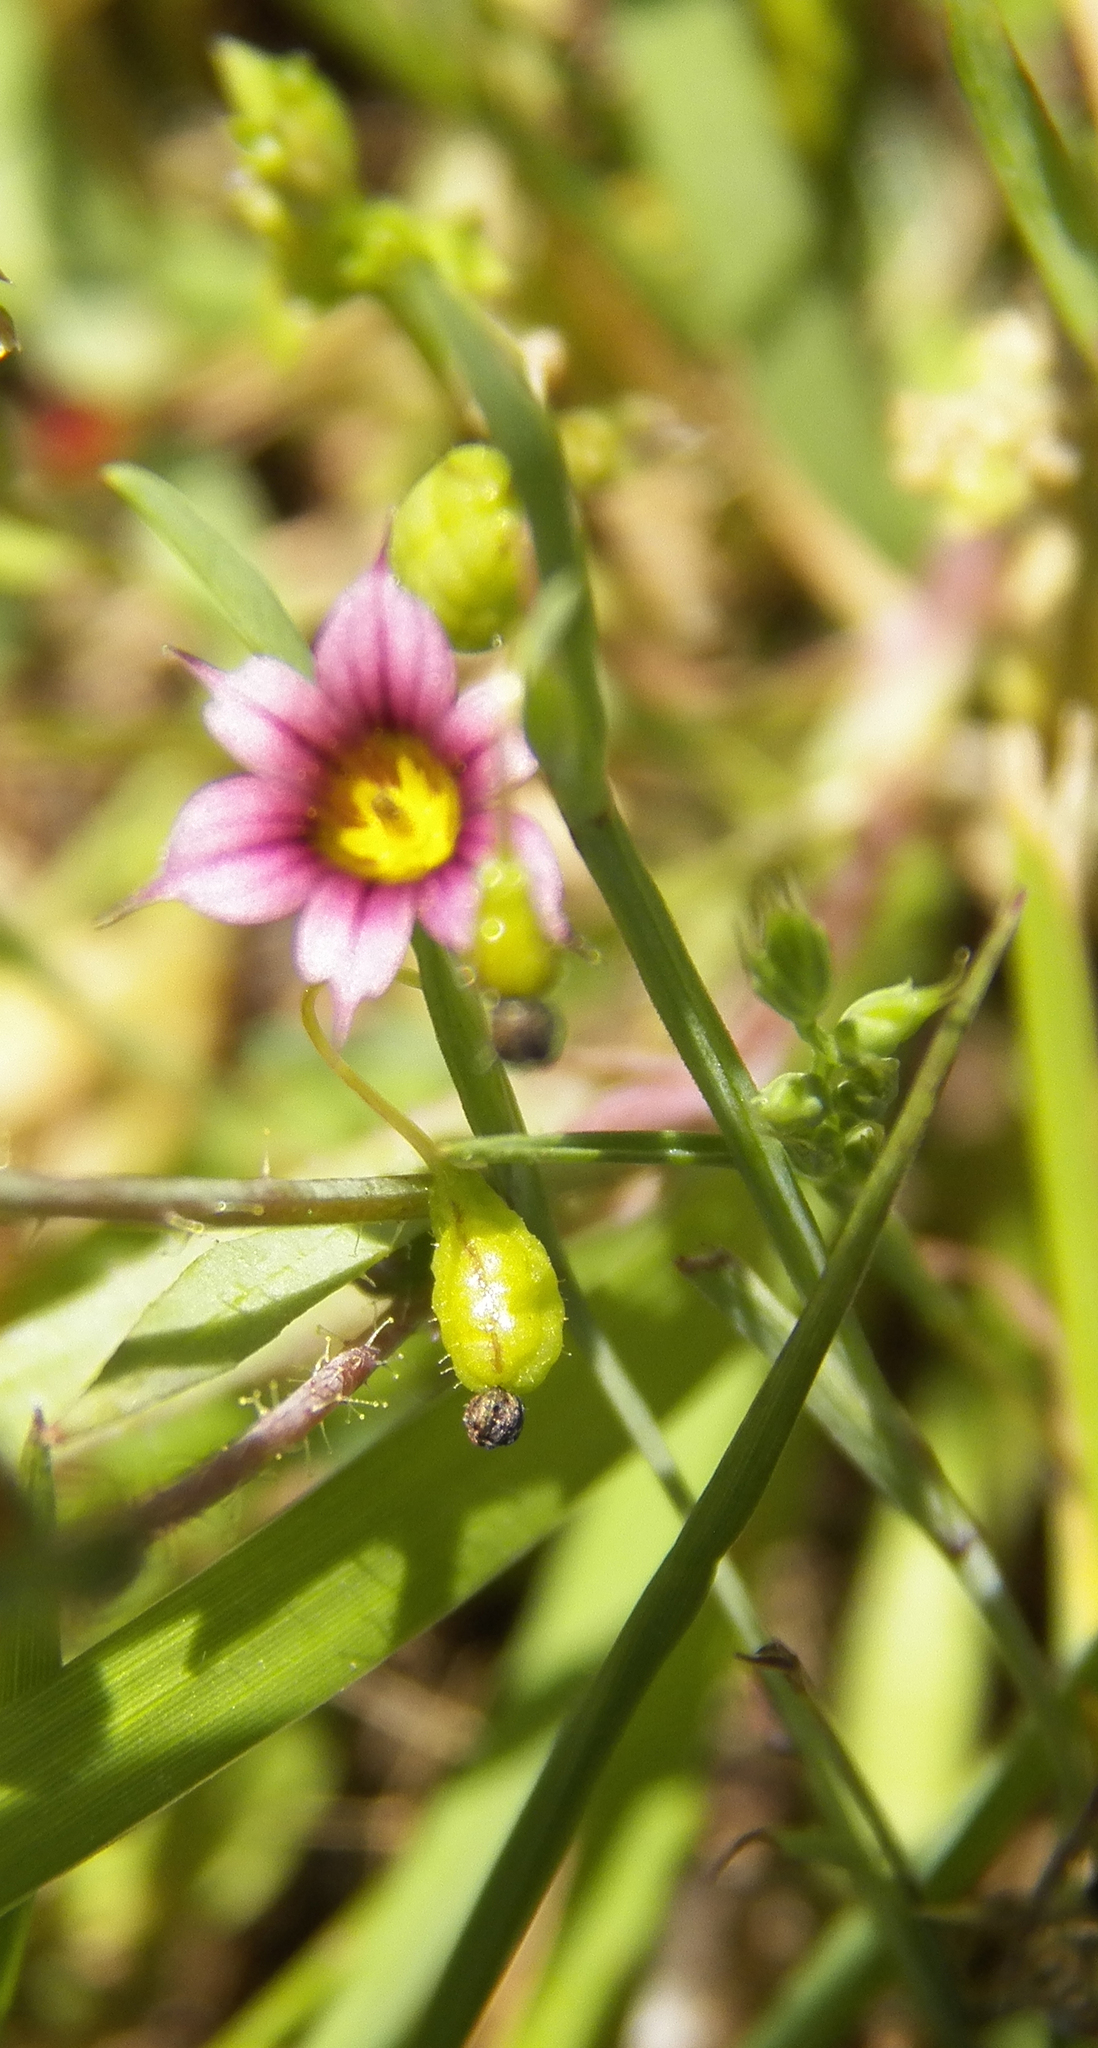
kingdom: Plantae
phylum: Tracheophyta
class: Liliopsida
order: Asparagales
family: Iridaceae
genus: Sisyrinchium
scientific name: Sisyrinchium minus
